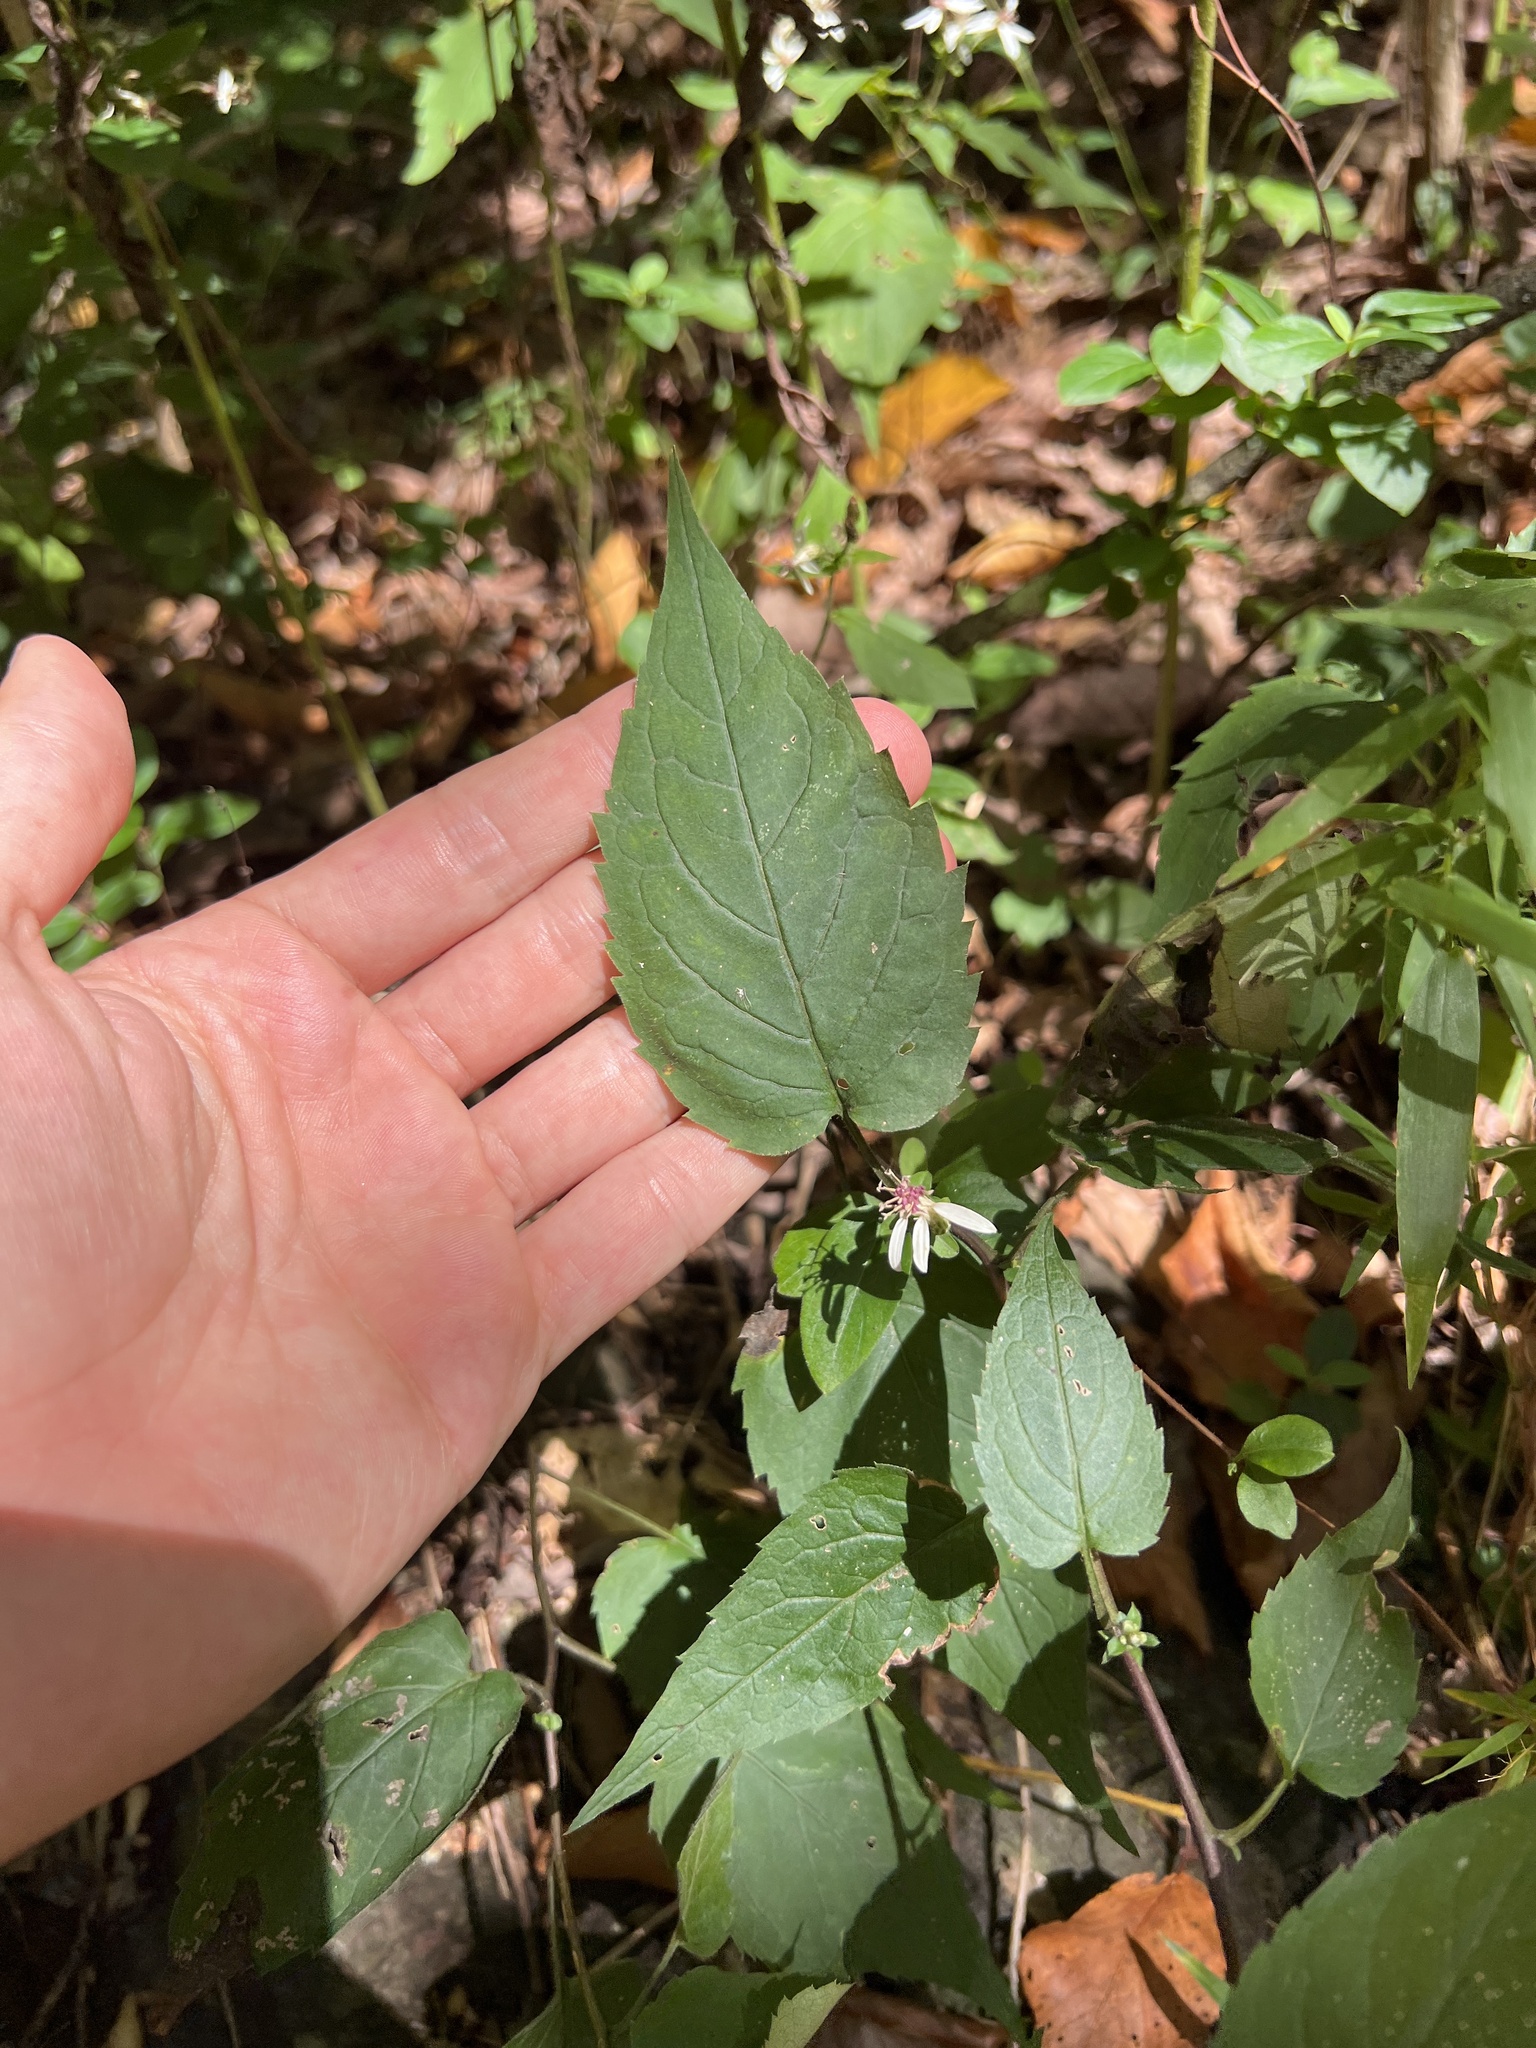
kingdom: Plantae
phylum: Tracheophyta
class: Magnoliopsida
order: Asterales
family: Asteraceae
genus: Eurybia
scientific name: Eurybia divaricata
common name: White wood aster
